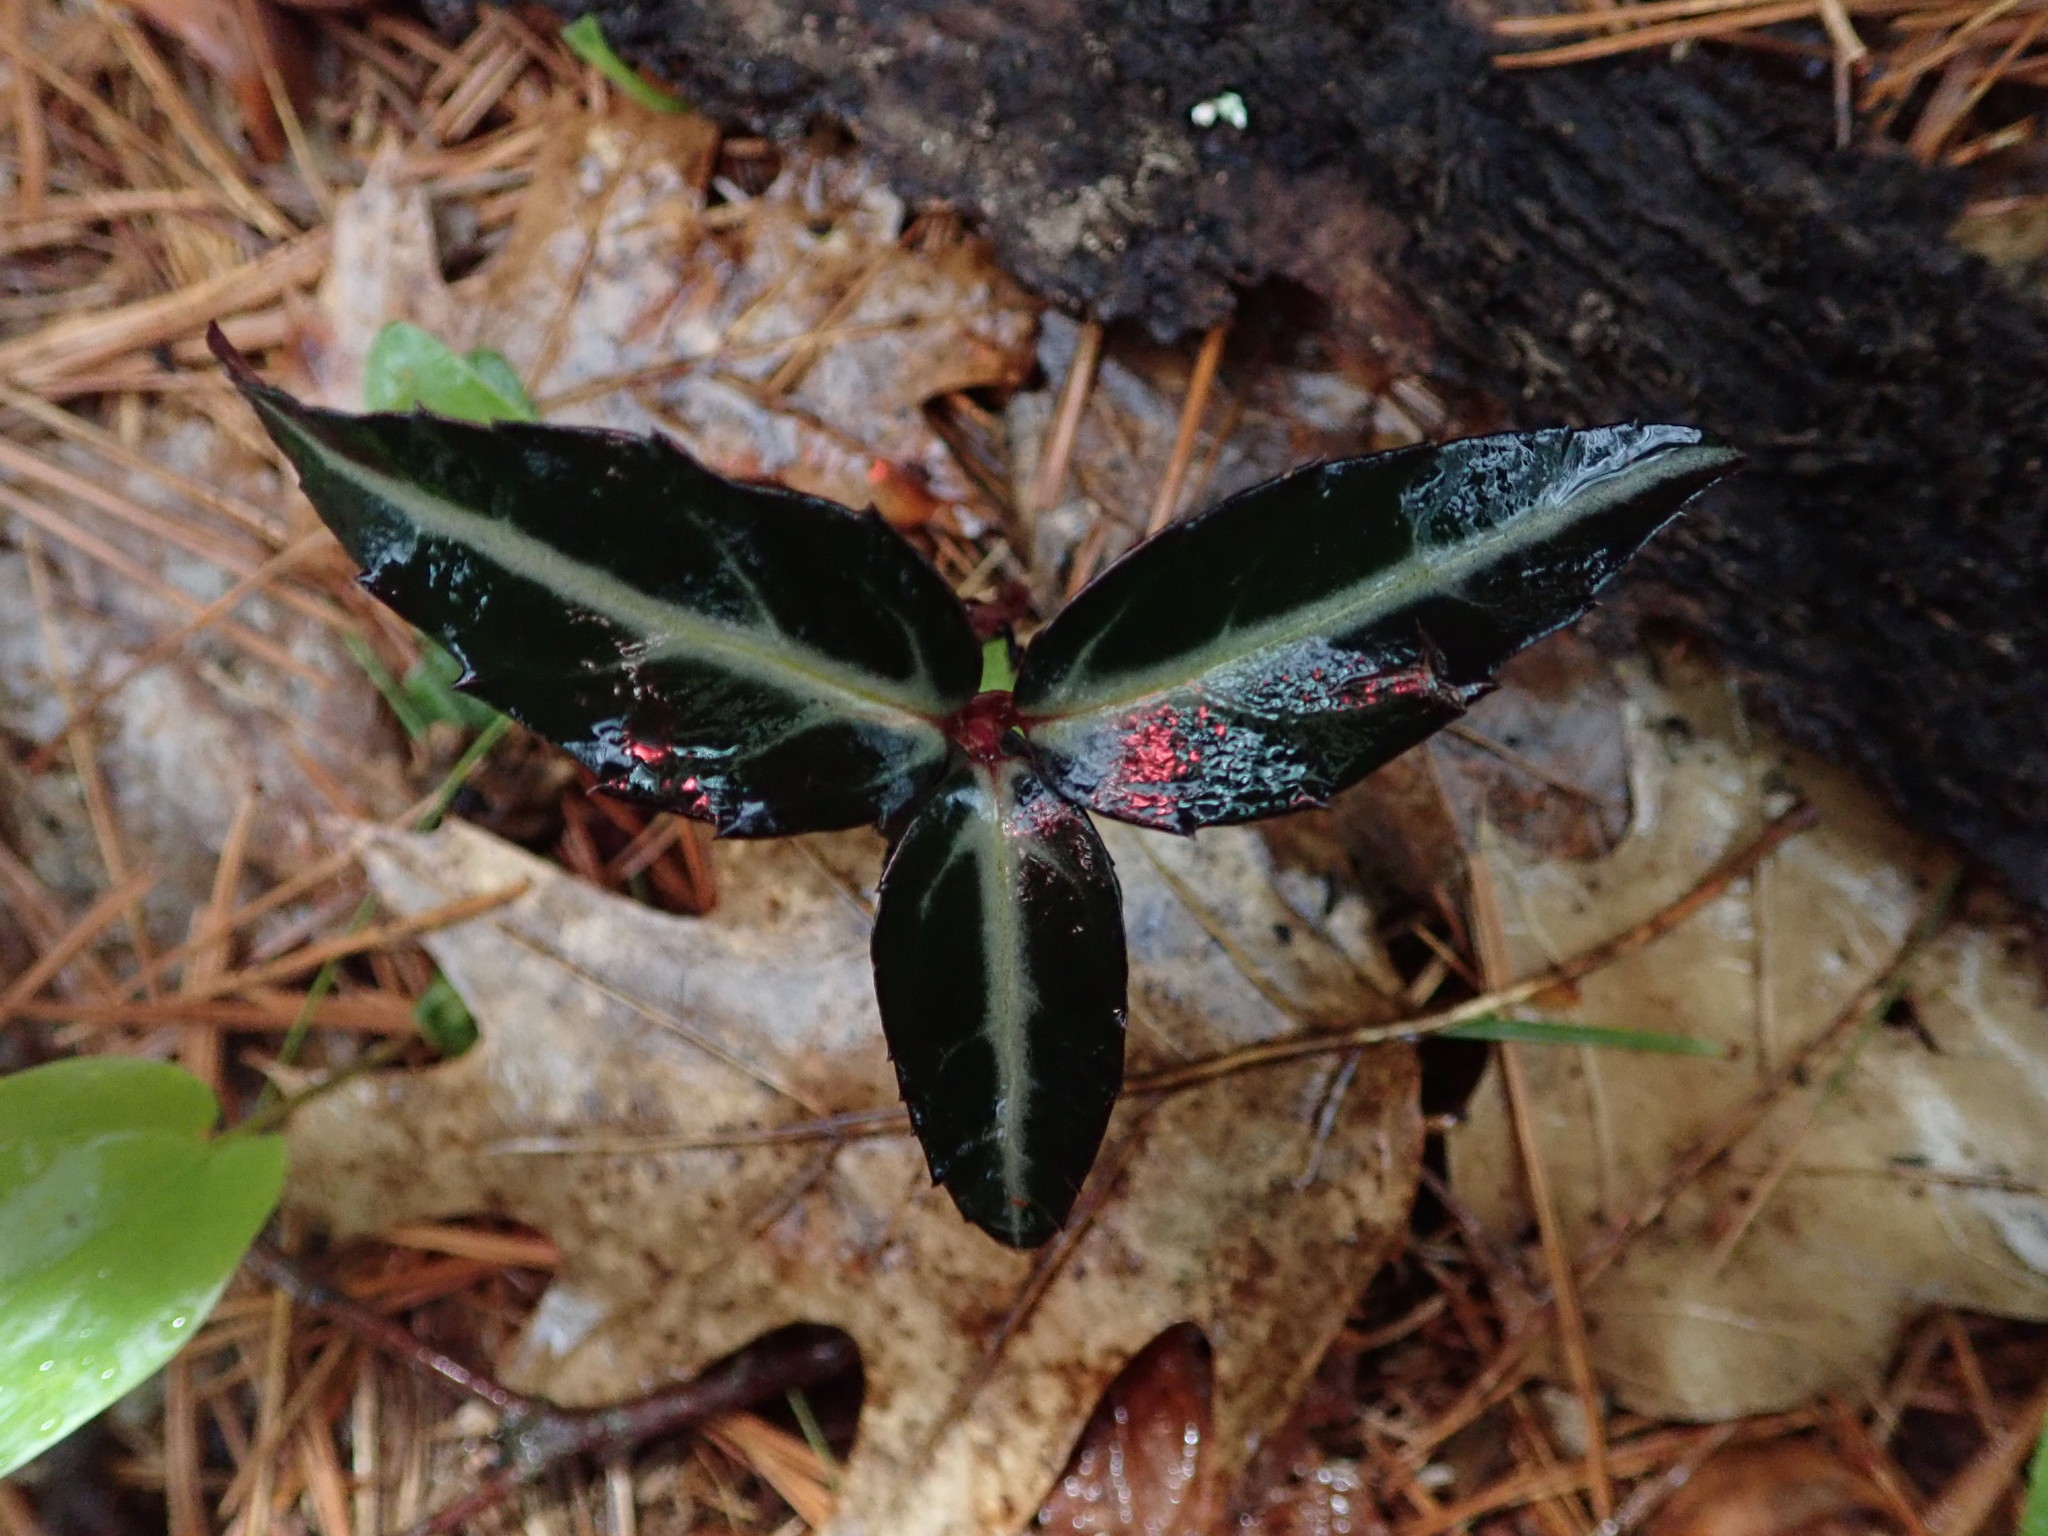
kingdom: Plantae
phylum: Tracheophyta
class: Magnoliopsida
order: Ericales
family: Ericaceae
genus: Chimaphila
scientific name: Chimaphila maculata
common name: Spotted pipsissewa
